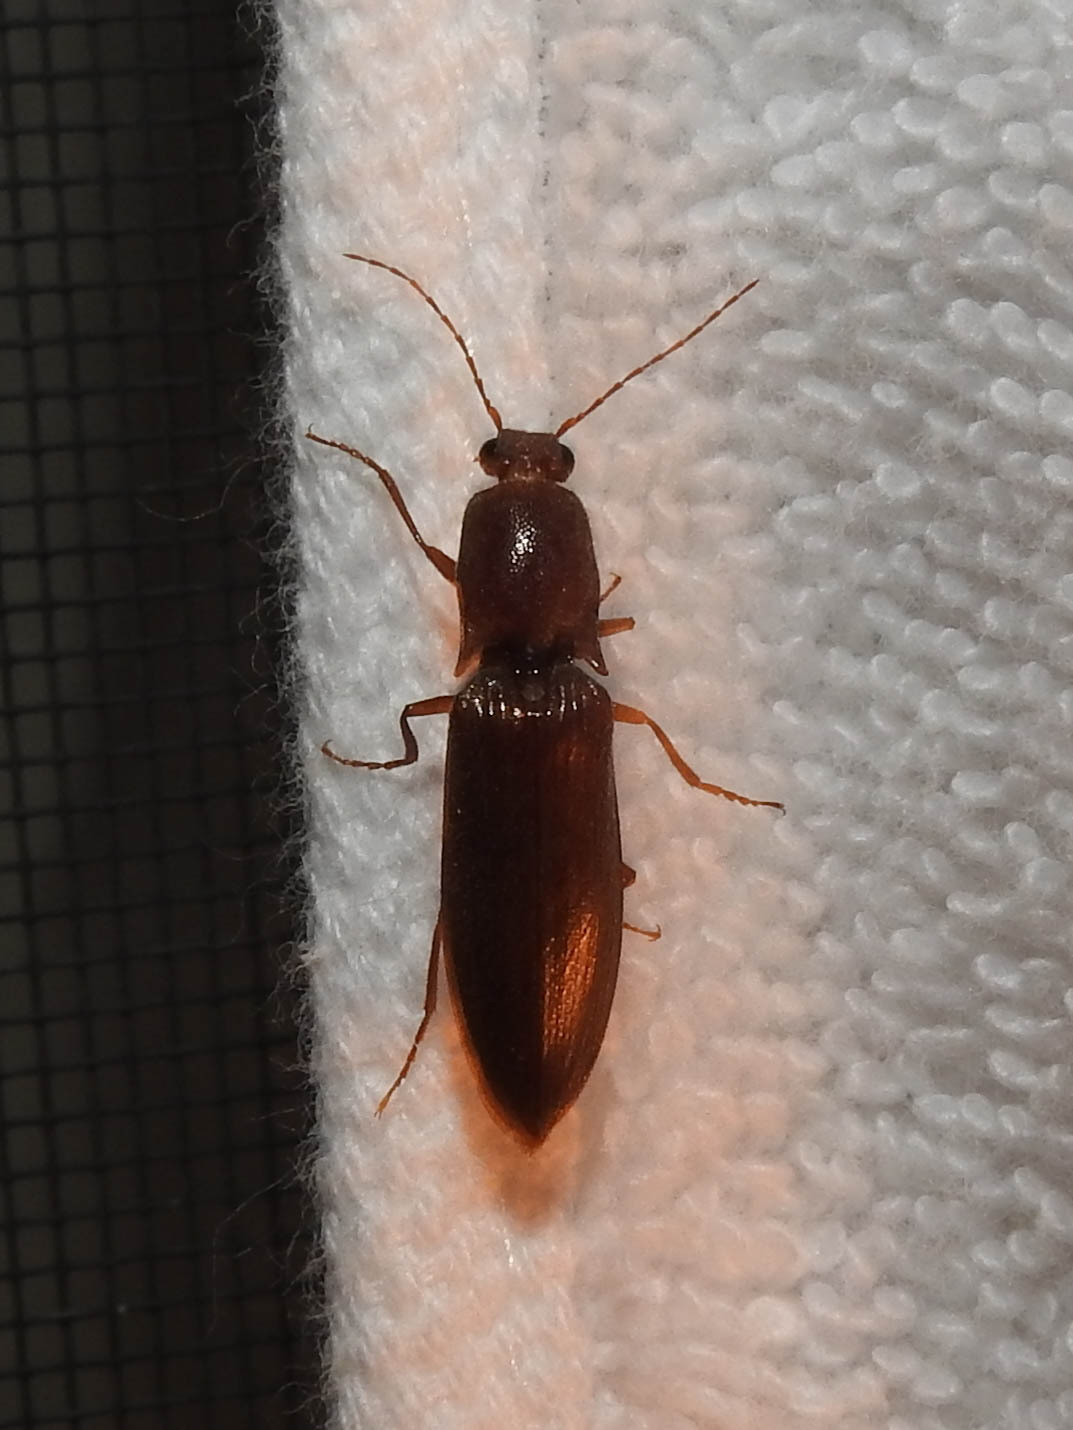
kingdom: Animalia
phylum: Arthropoda
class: Insecta
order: Coleoptera
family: Elateridae
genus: Proludius
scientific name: Proludius pyrros
